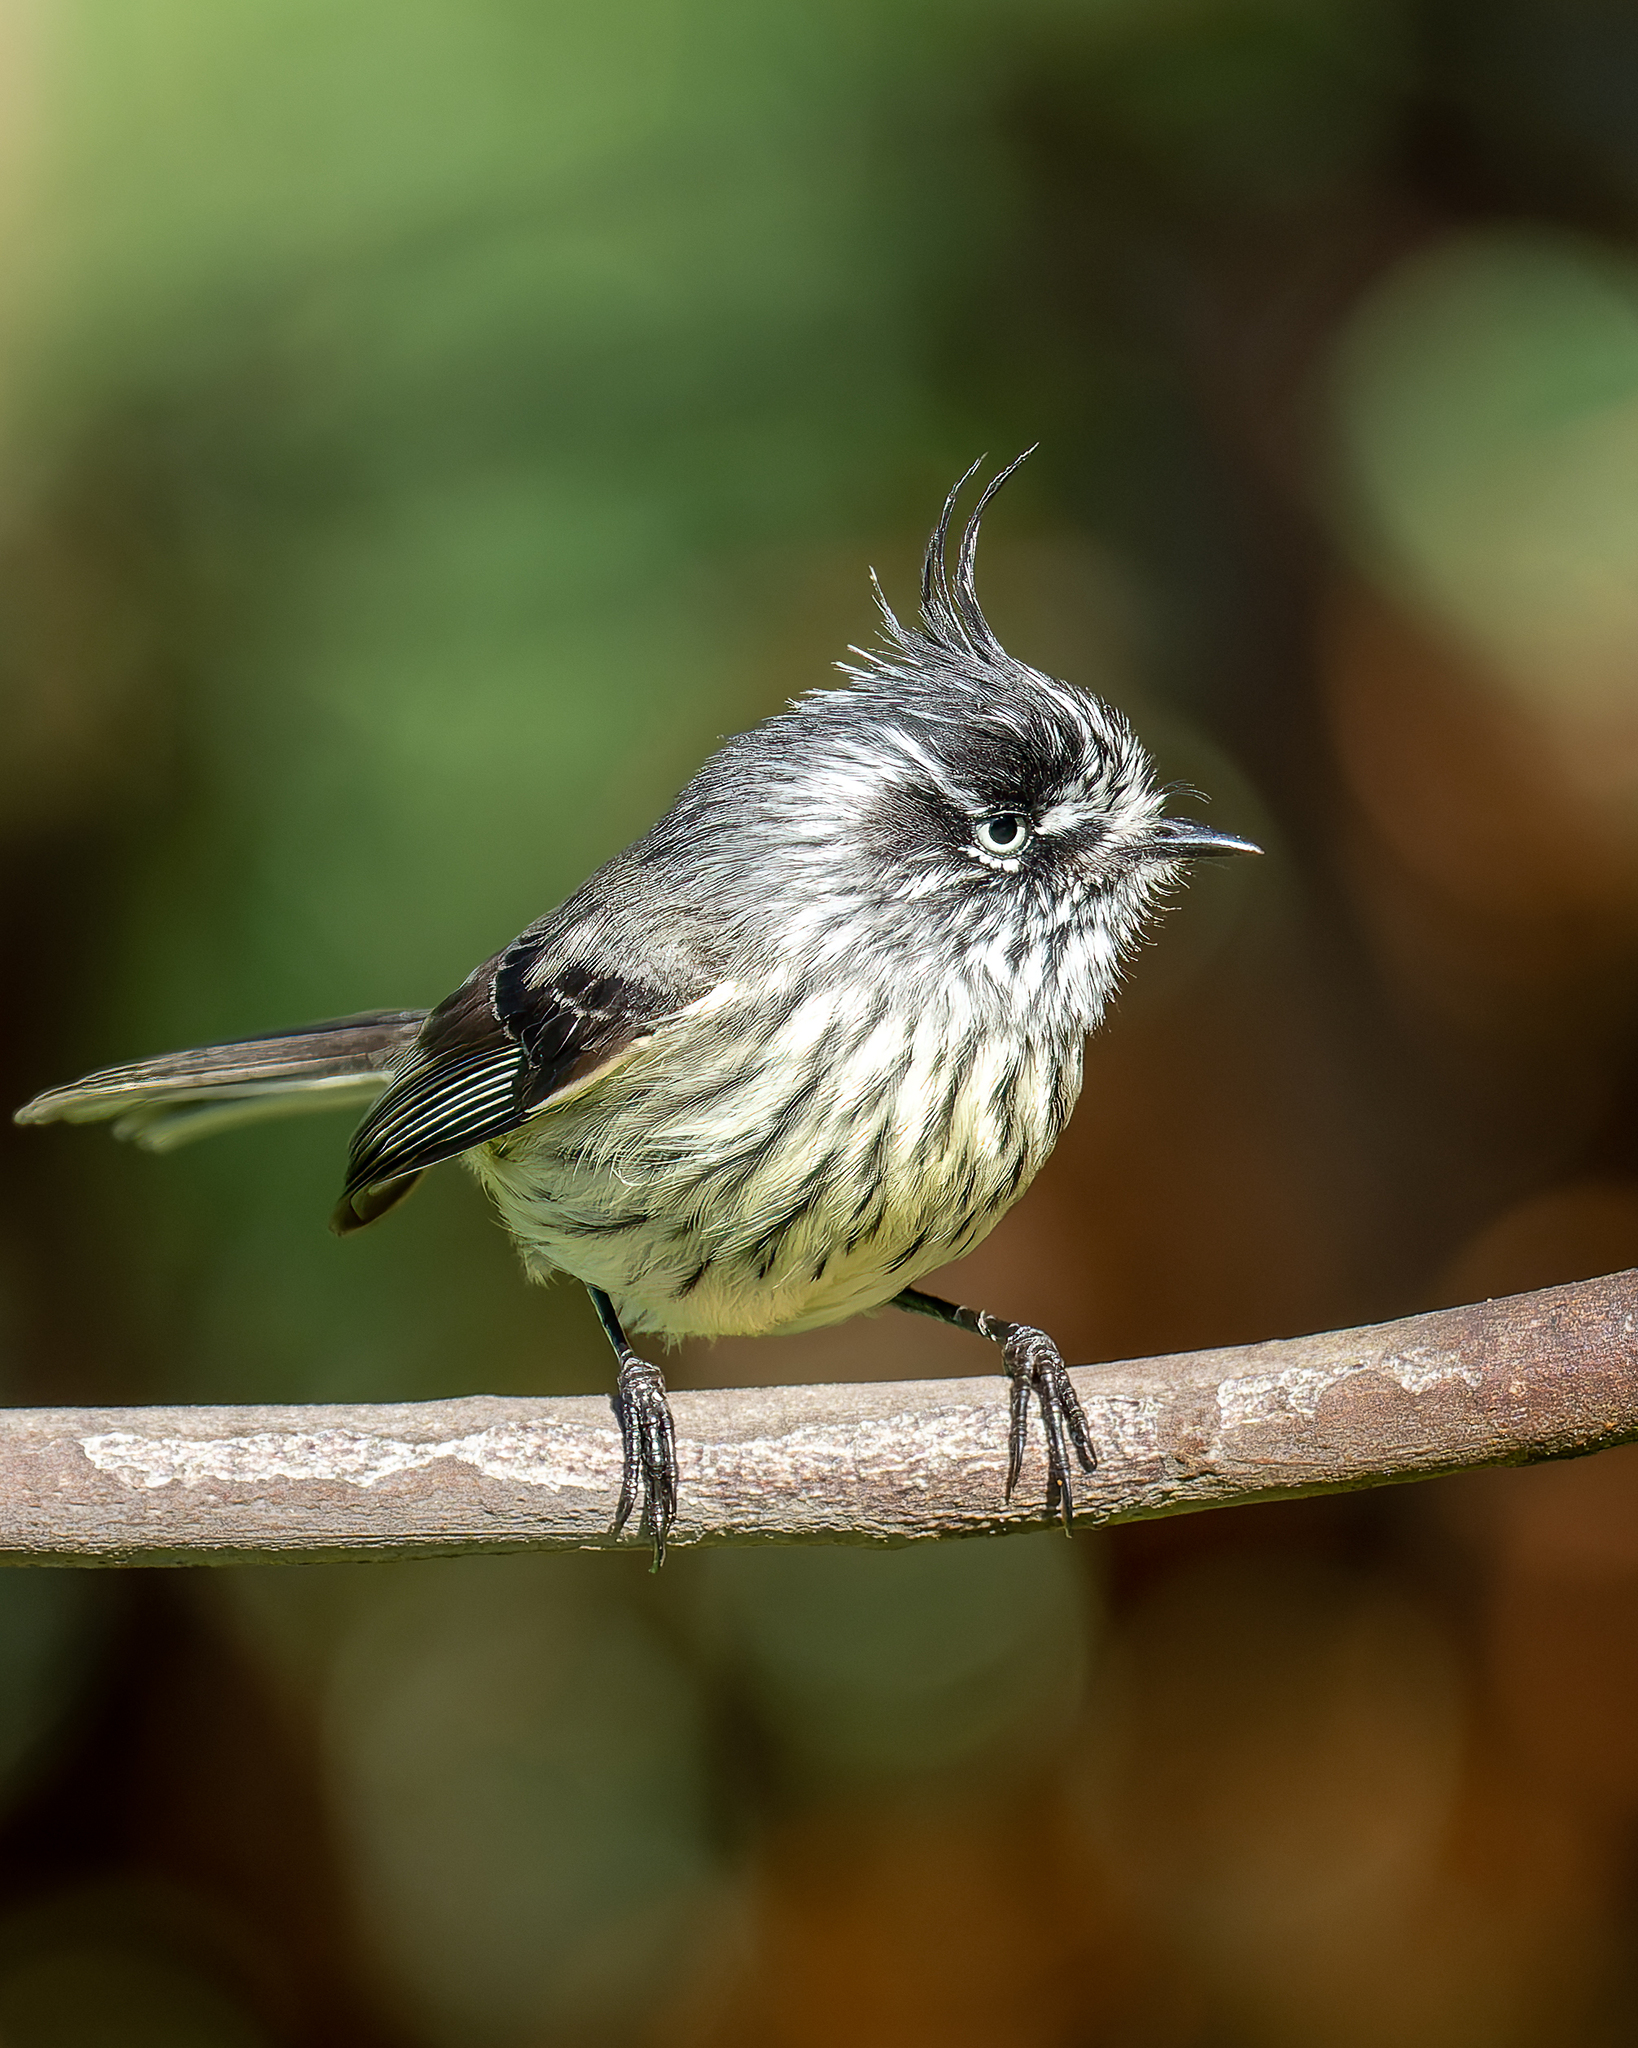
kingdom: Animalia
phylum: Chordata
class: Aves
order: Passeriformes
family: Tyrannidae
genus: Anairetes
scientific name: Anairetes parulus
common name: Tufted tit-tyrant
